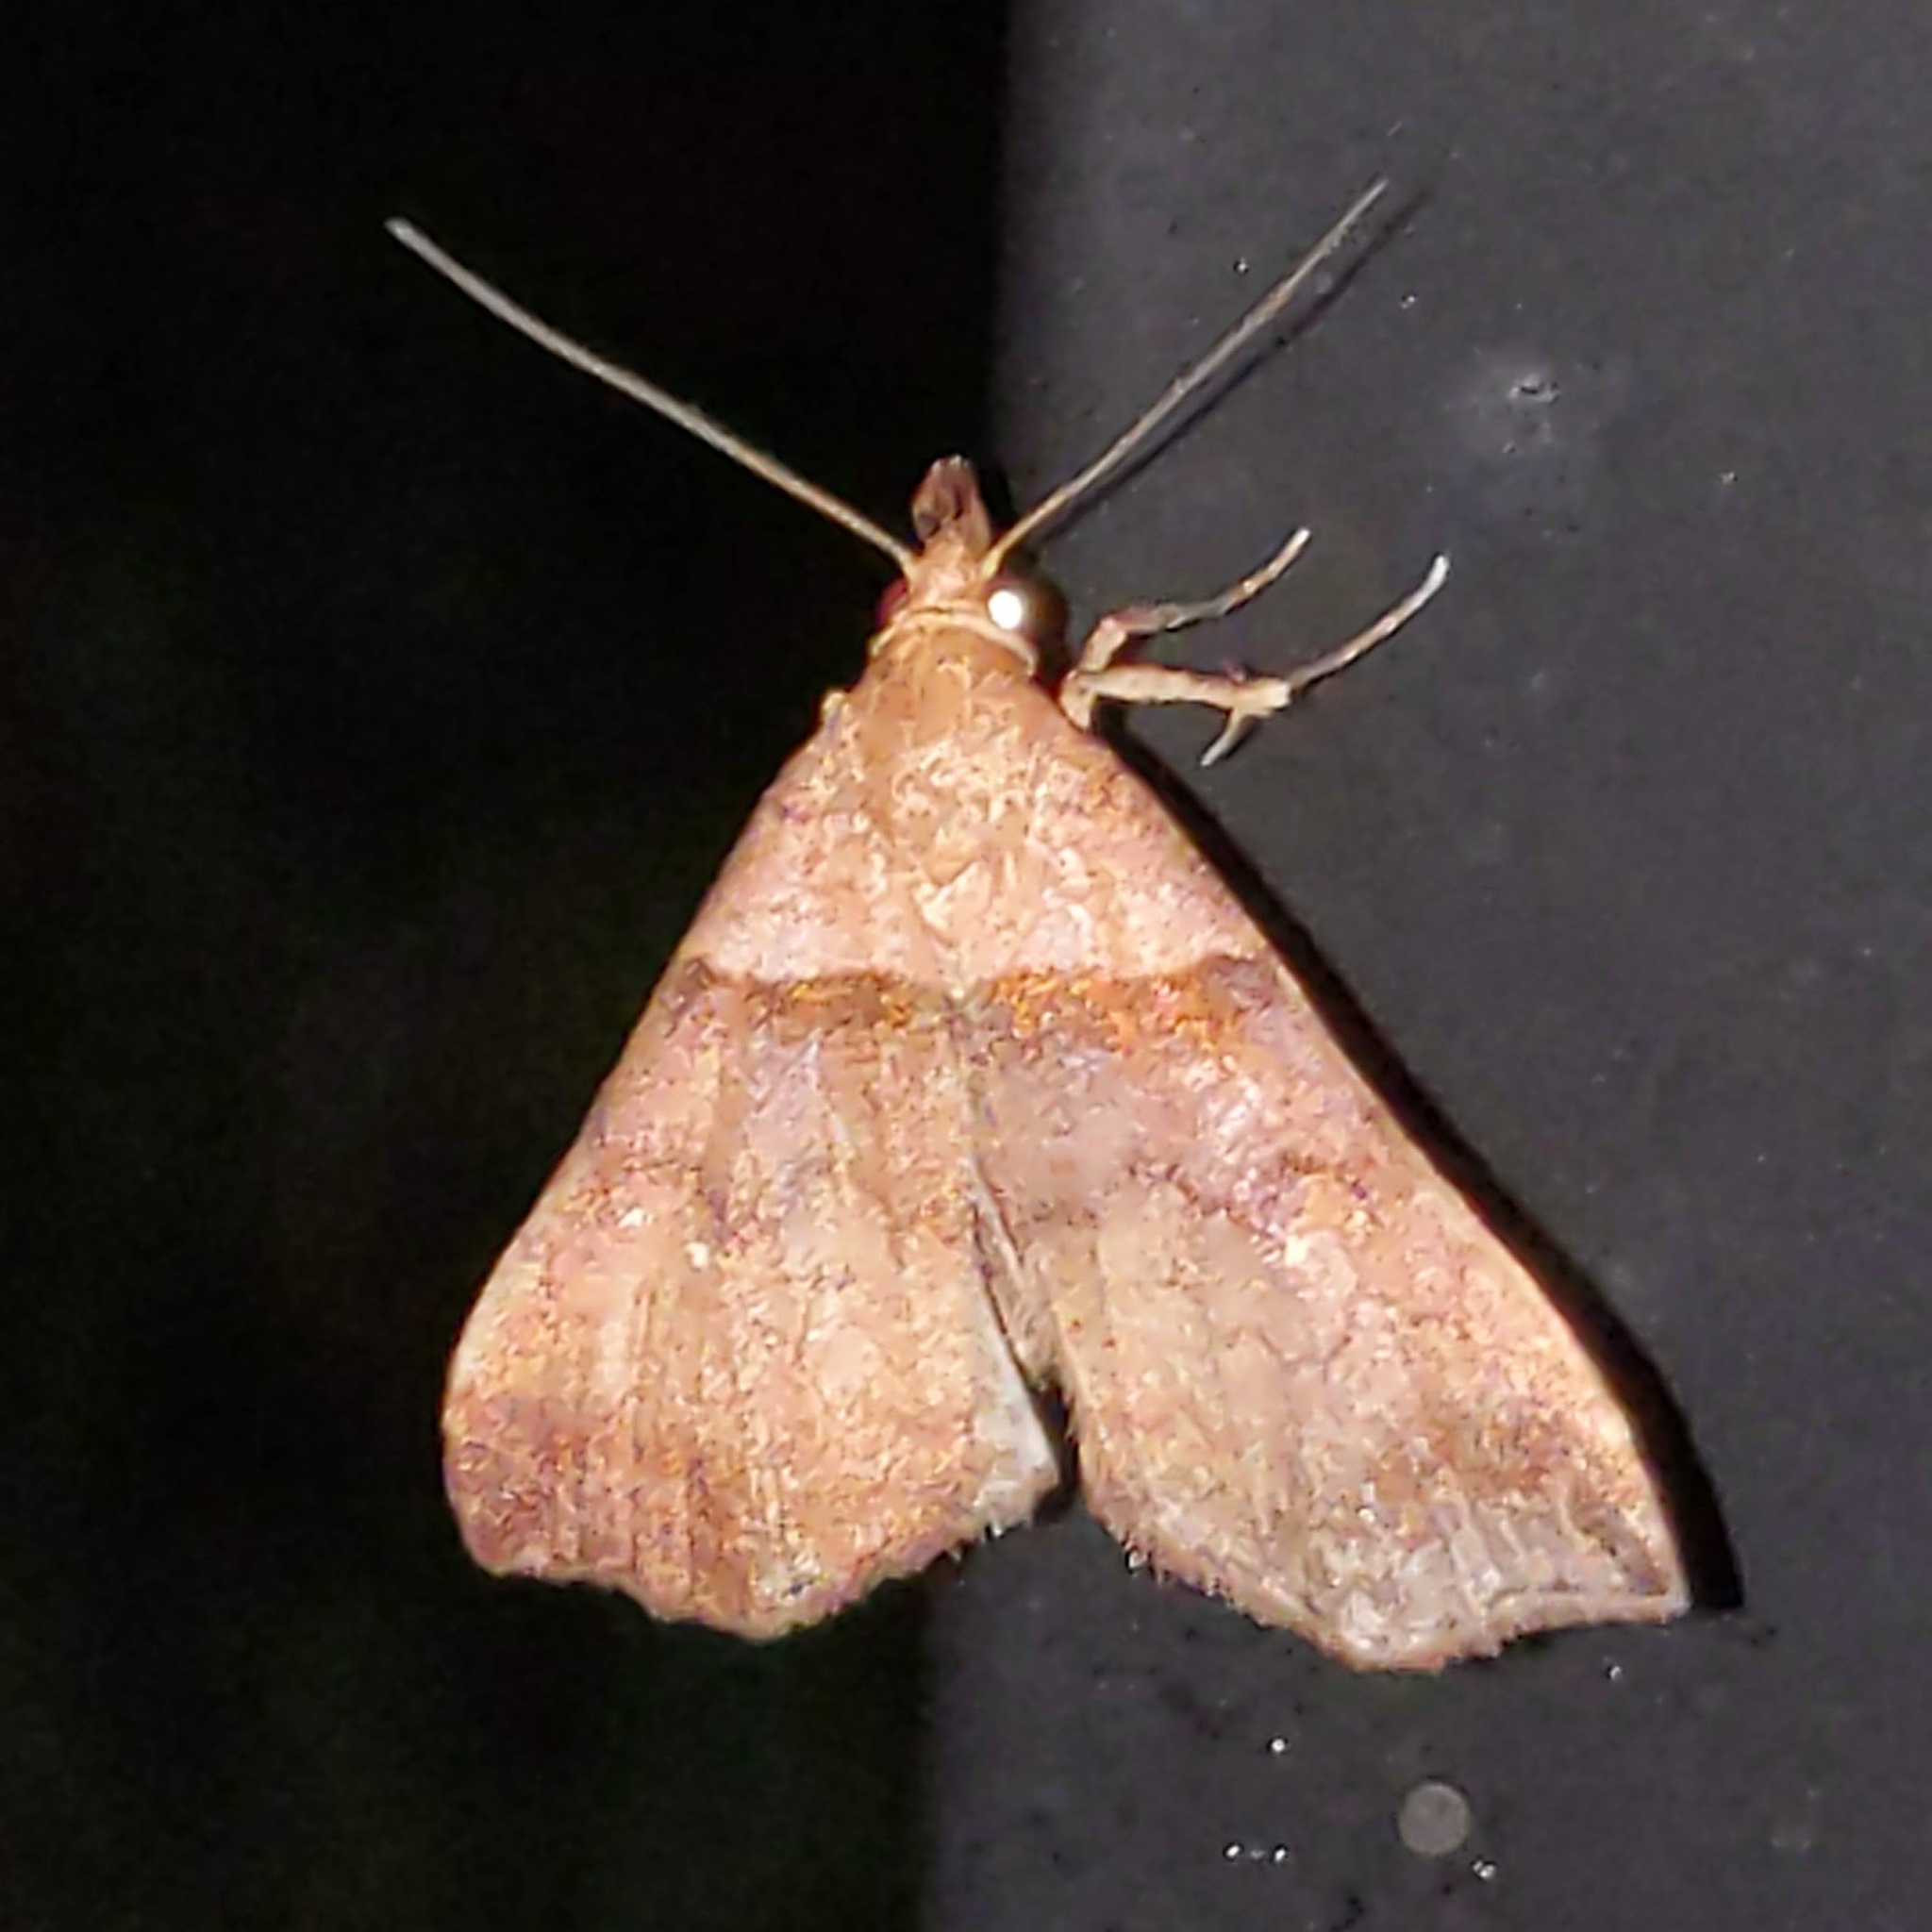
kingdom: Animalia
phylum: Arthropoda
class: Insecta
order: Lepidoptera
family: Erebidae
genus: Lascoria
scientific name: Lascoria ambigualis
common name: Ambiguous moth
